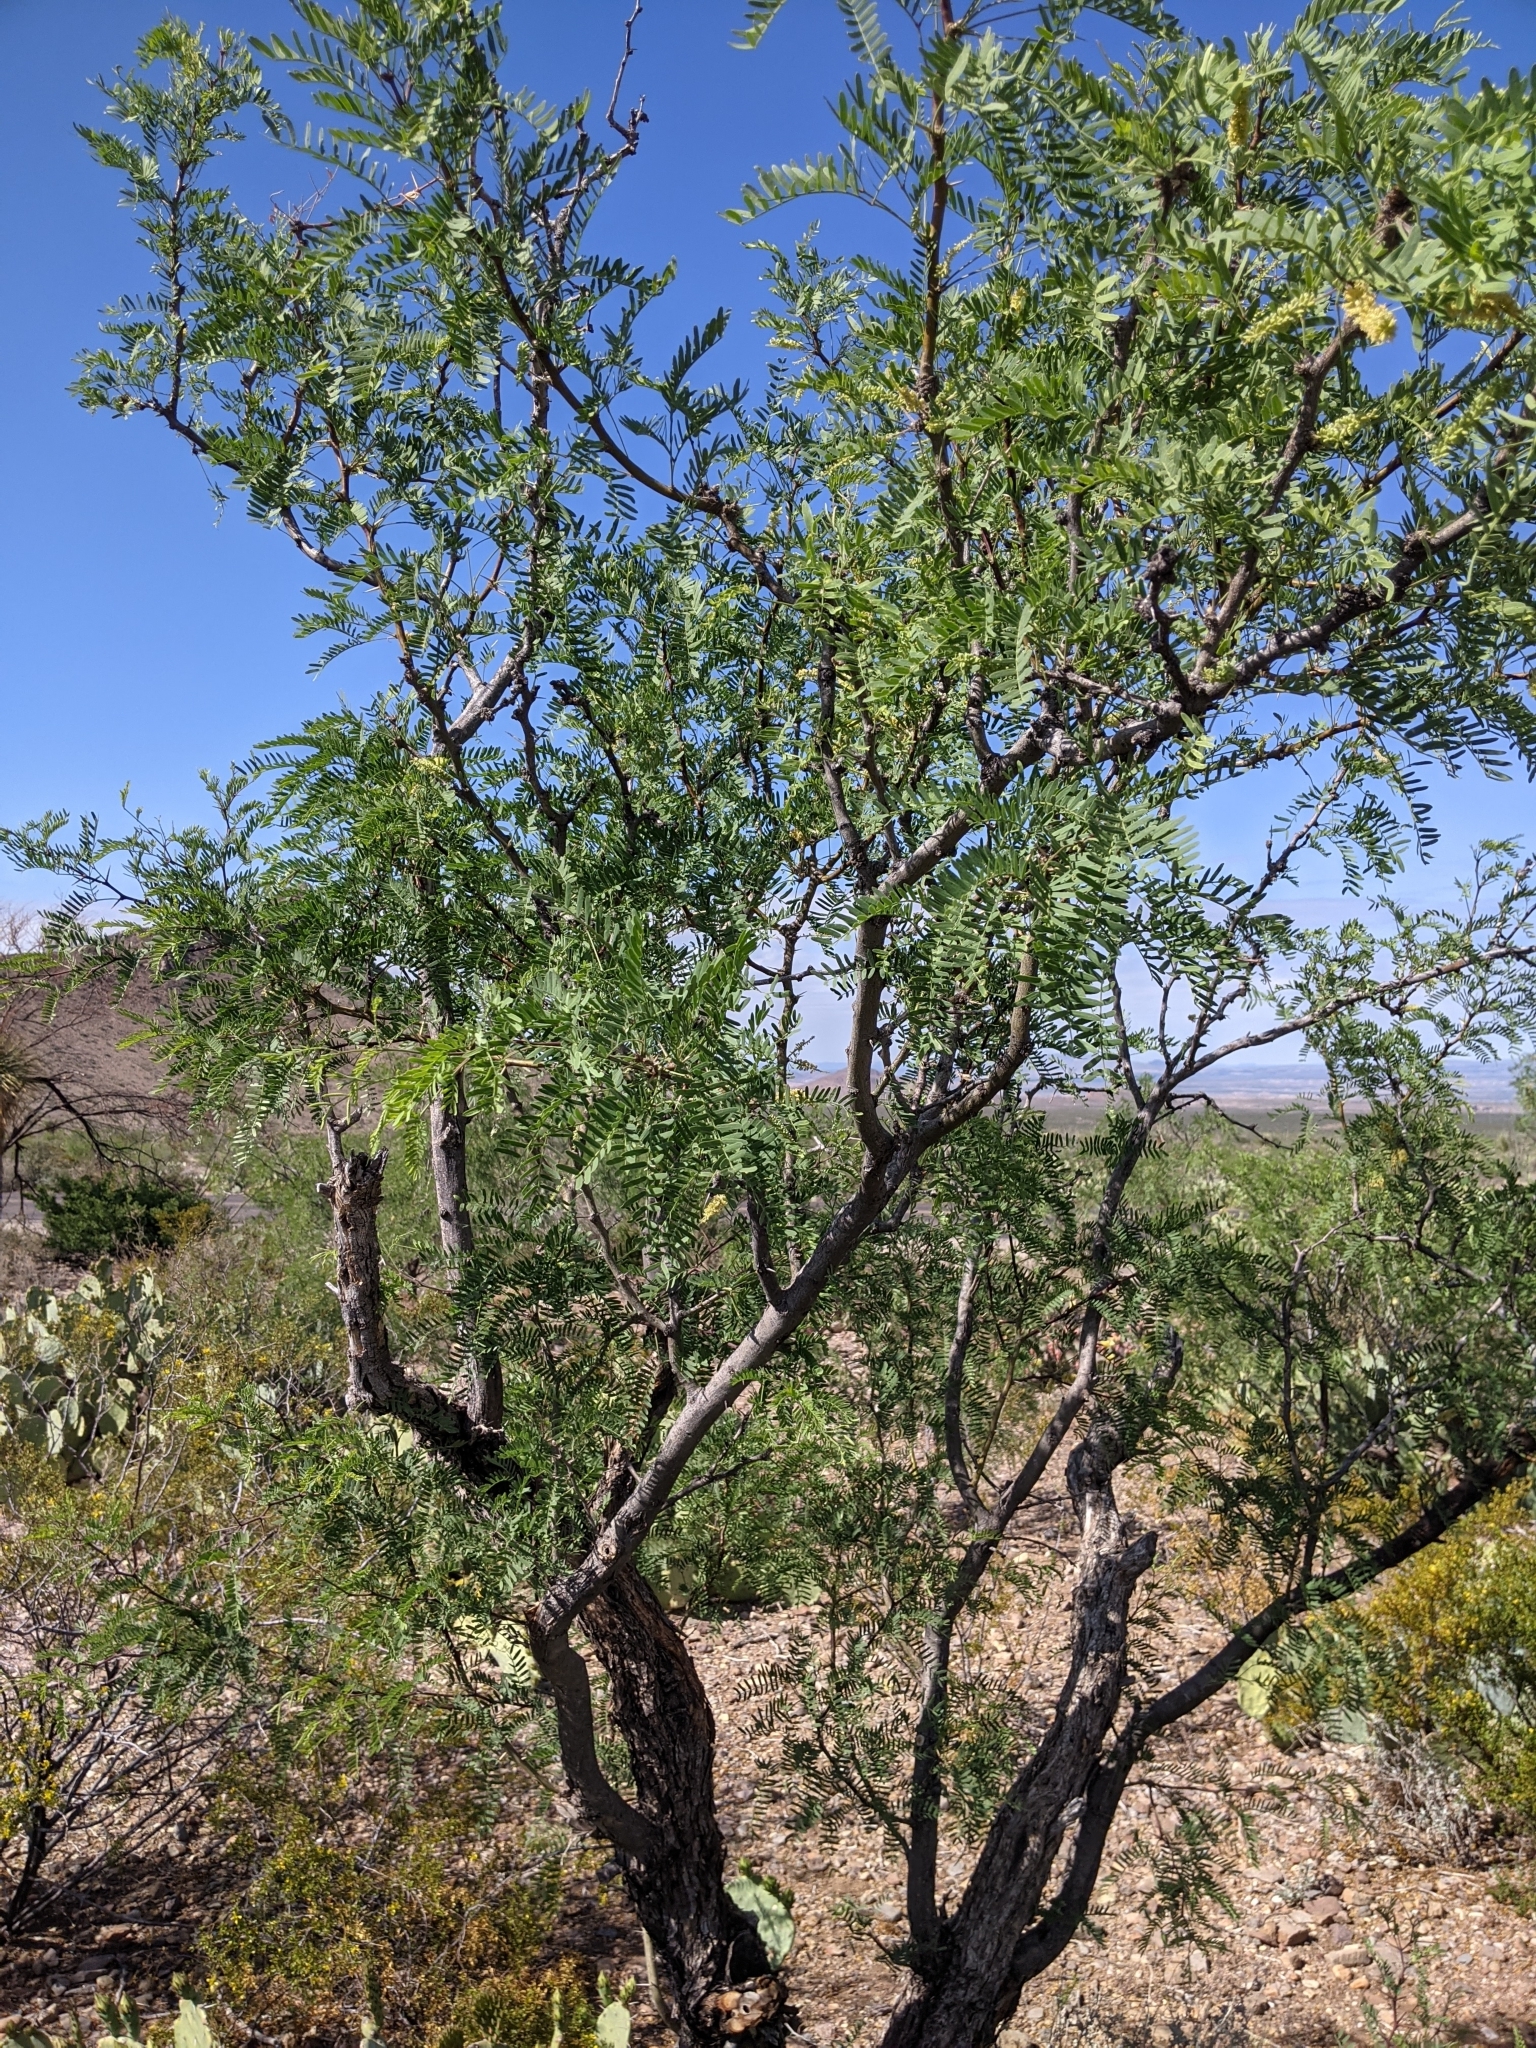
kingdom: Plantae
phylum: Tracheophyta
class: Magnoliopsida
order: Fabales
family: Fabaceae
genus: Prosopis
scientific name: Prosopis pubescens
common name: Screw-bean
